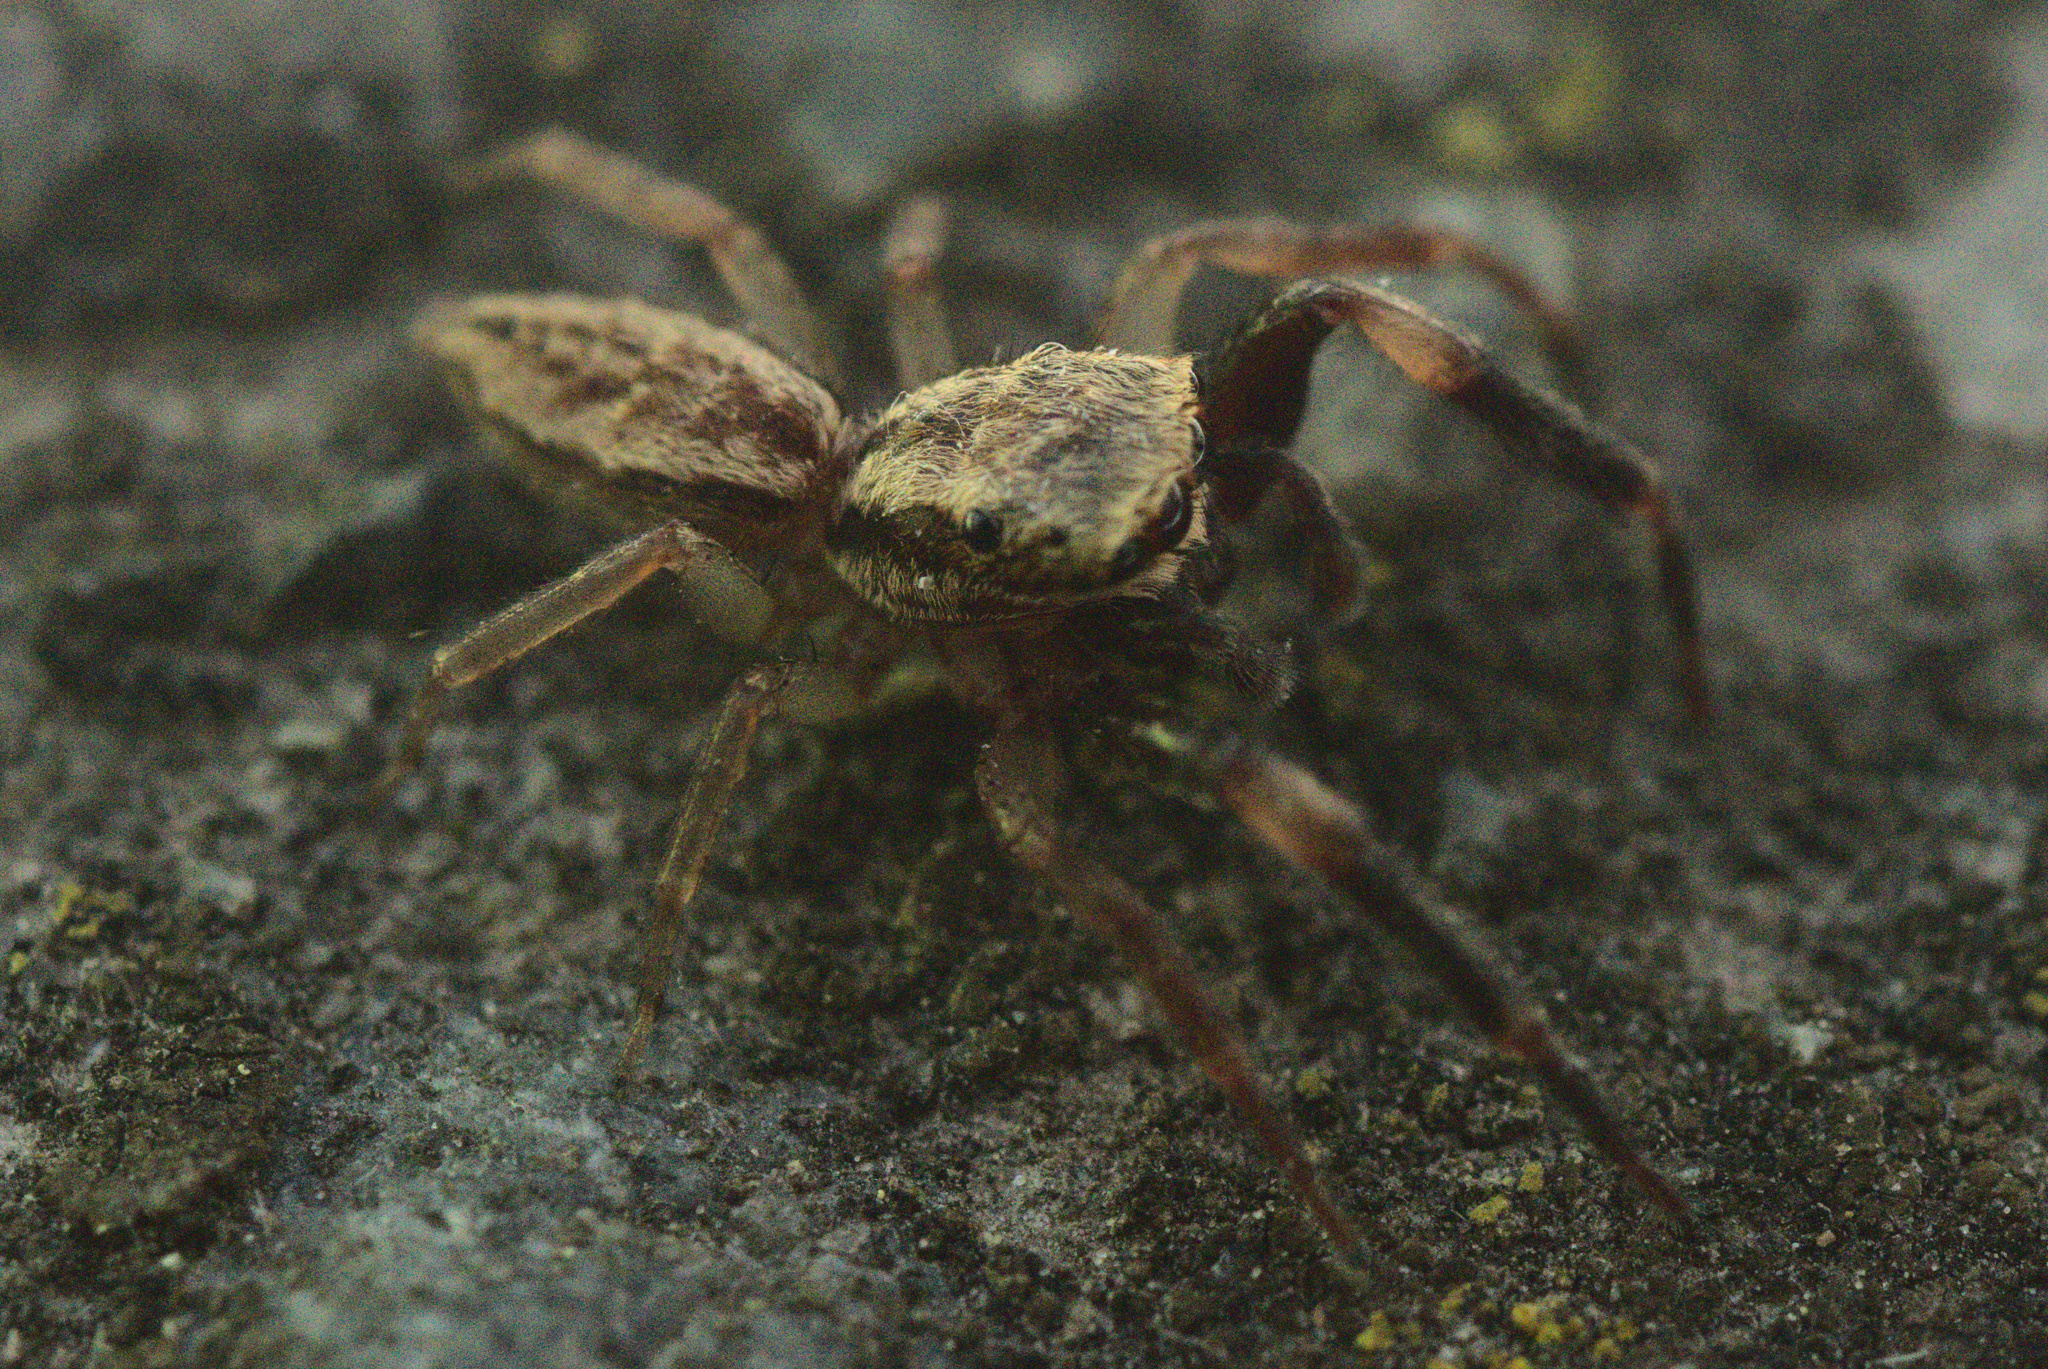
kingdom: Animalia
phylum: Arthropoda
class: Arachnida
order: Araneae
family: Salticidae
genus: Trite
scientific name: Trite auricoma
